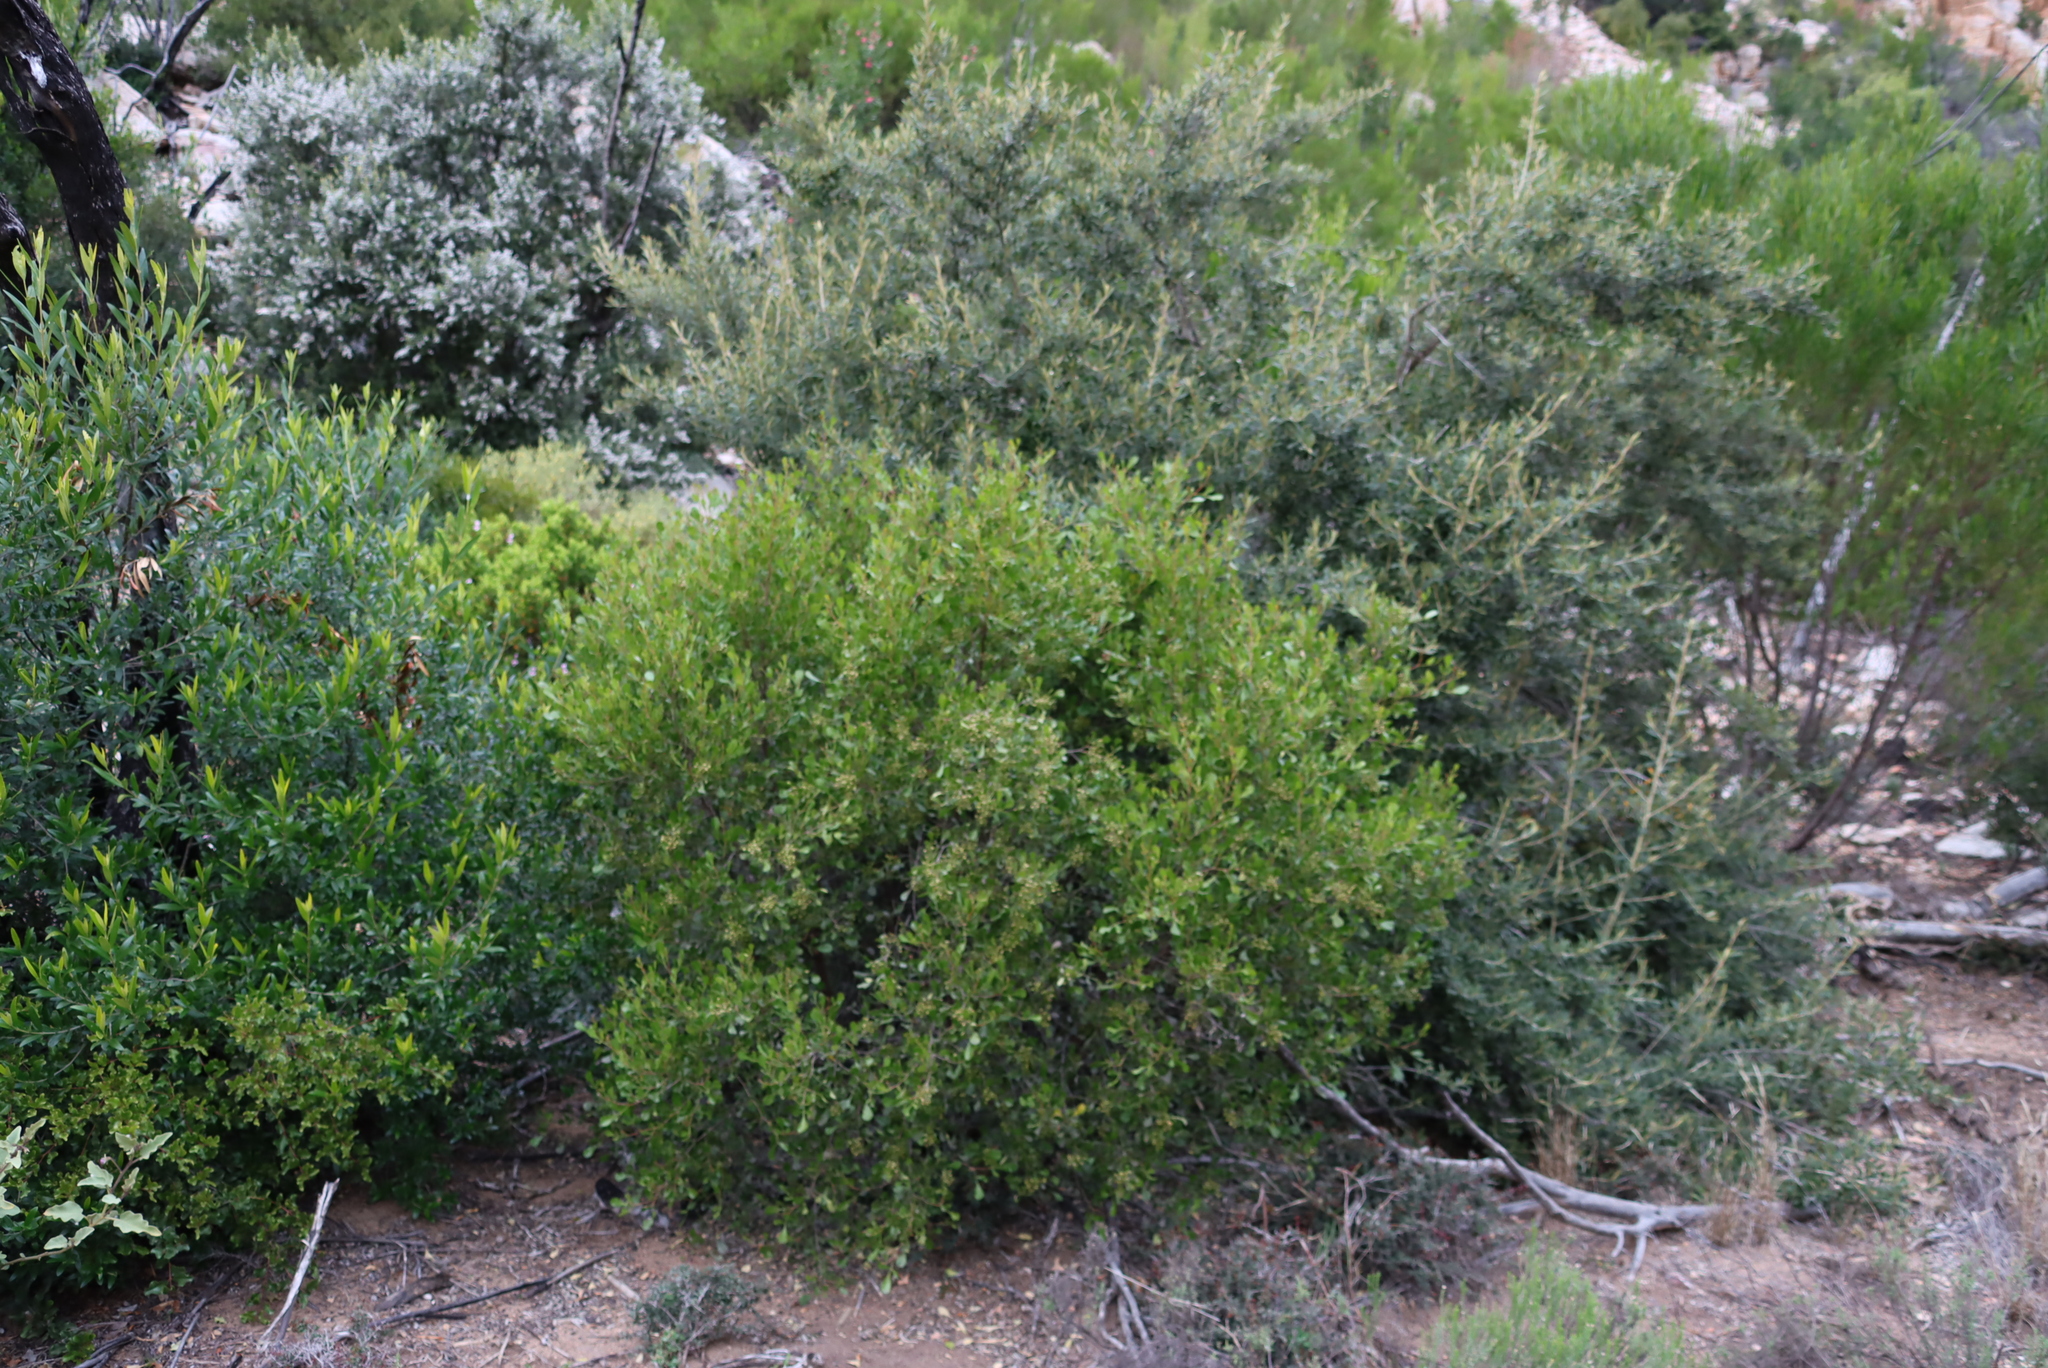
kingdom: Plantae
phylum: Tracheophyta
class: Magnoliopsida
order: Sapindales
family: Anacardiaceae
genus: Searsia
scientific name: Searsia pallens
